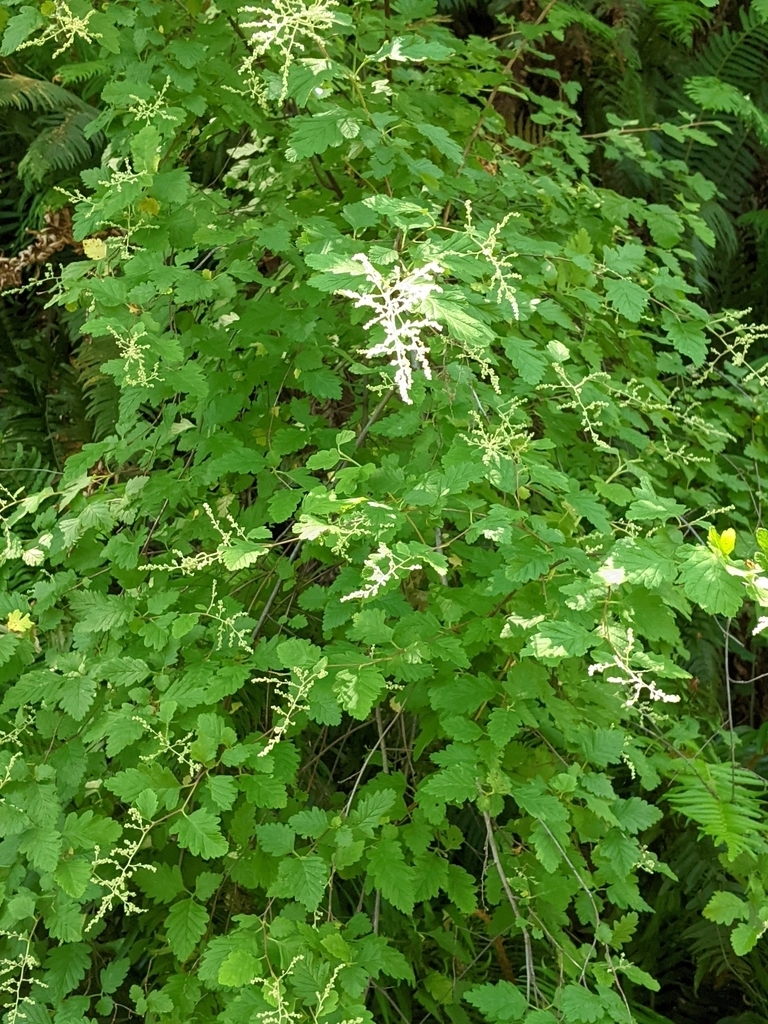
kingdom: Plantae
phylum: Tracheophyta
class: Magnoliopsida
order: Rosales
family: Rosaceae
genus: Holodiscus
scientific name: Holodiscus discolor
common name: Oceanspray
